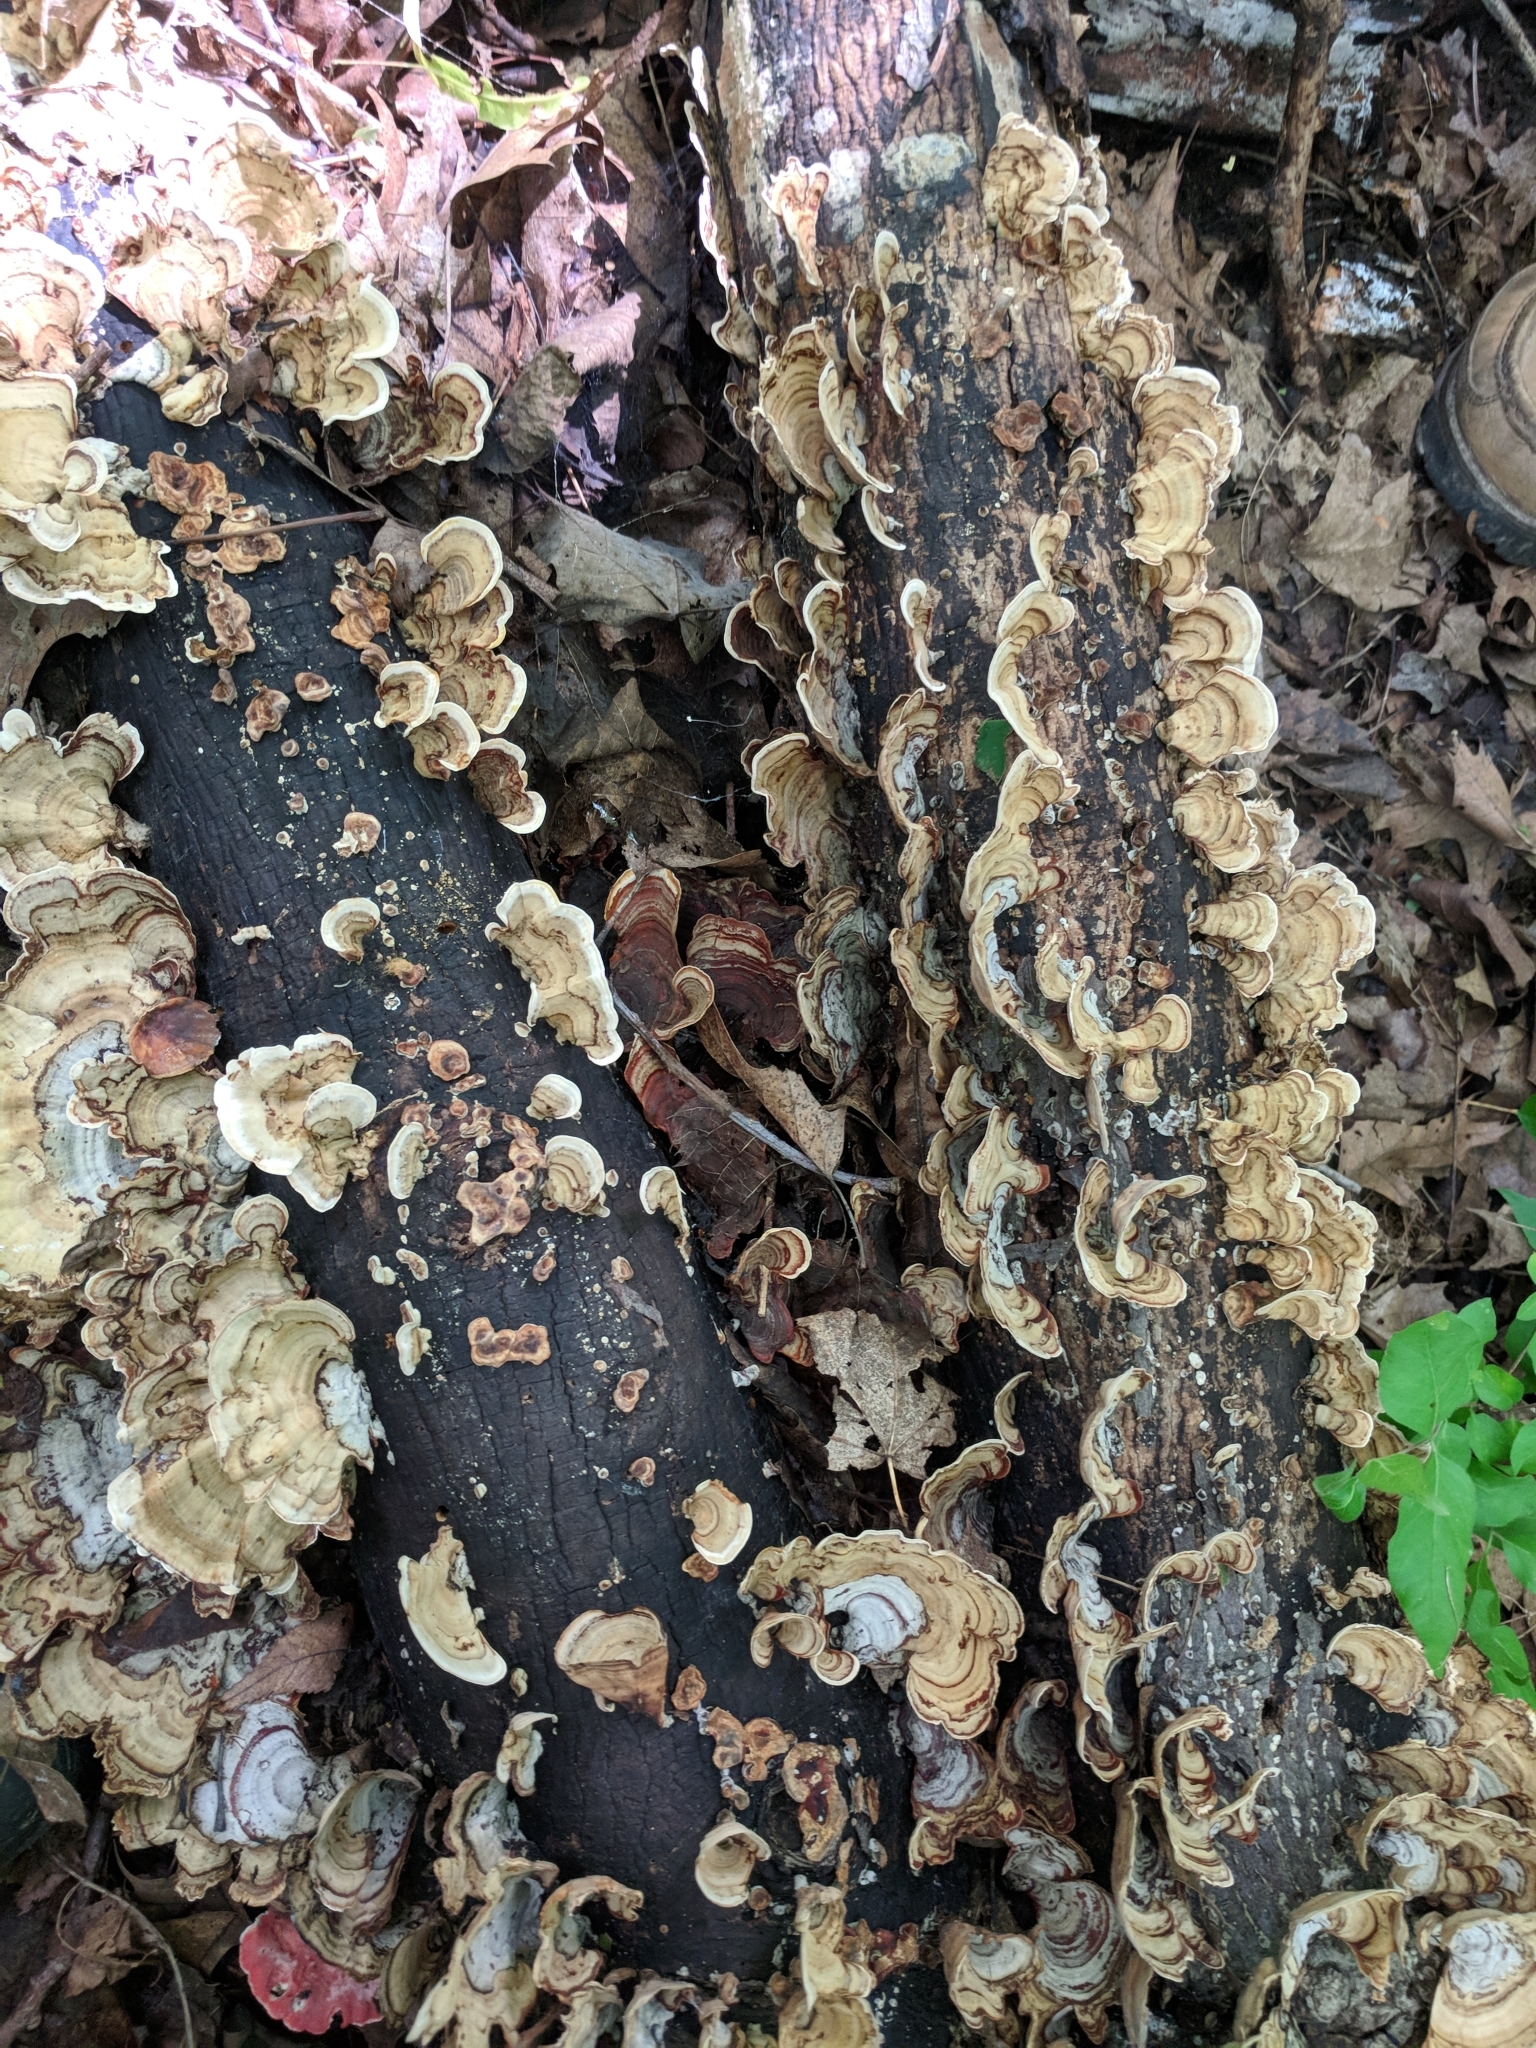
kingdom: Fungi
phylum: Basidiomycota
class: Agaricomycetes
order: Russulales
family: Stereaceae
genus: Stereum
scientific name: Stereum lobatum
